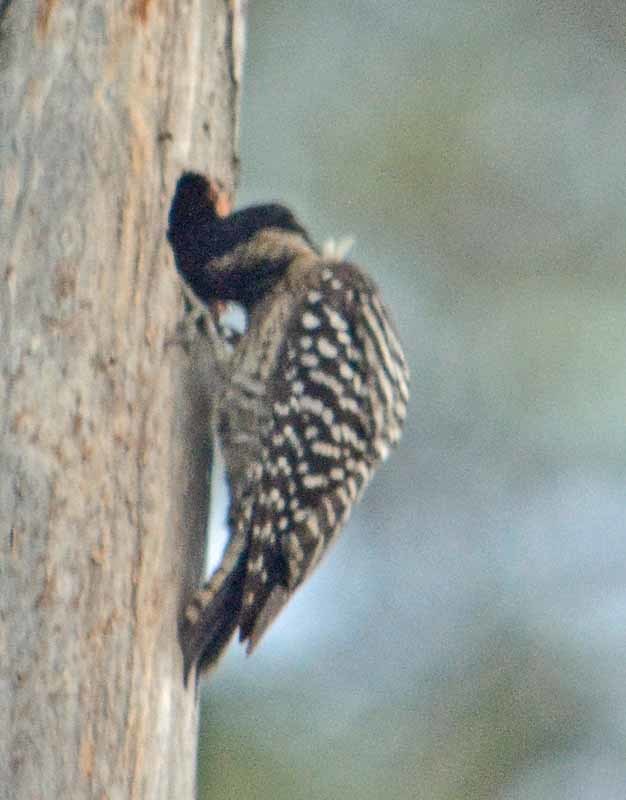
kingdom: Animalia
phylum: Chordata
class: Aves
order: Piciformes
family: Picidae
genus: Dryobates
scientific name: Dryobates scalaris
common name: Ladder-backed woodpecker
